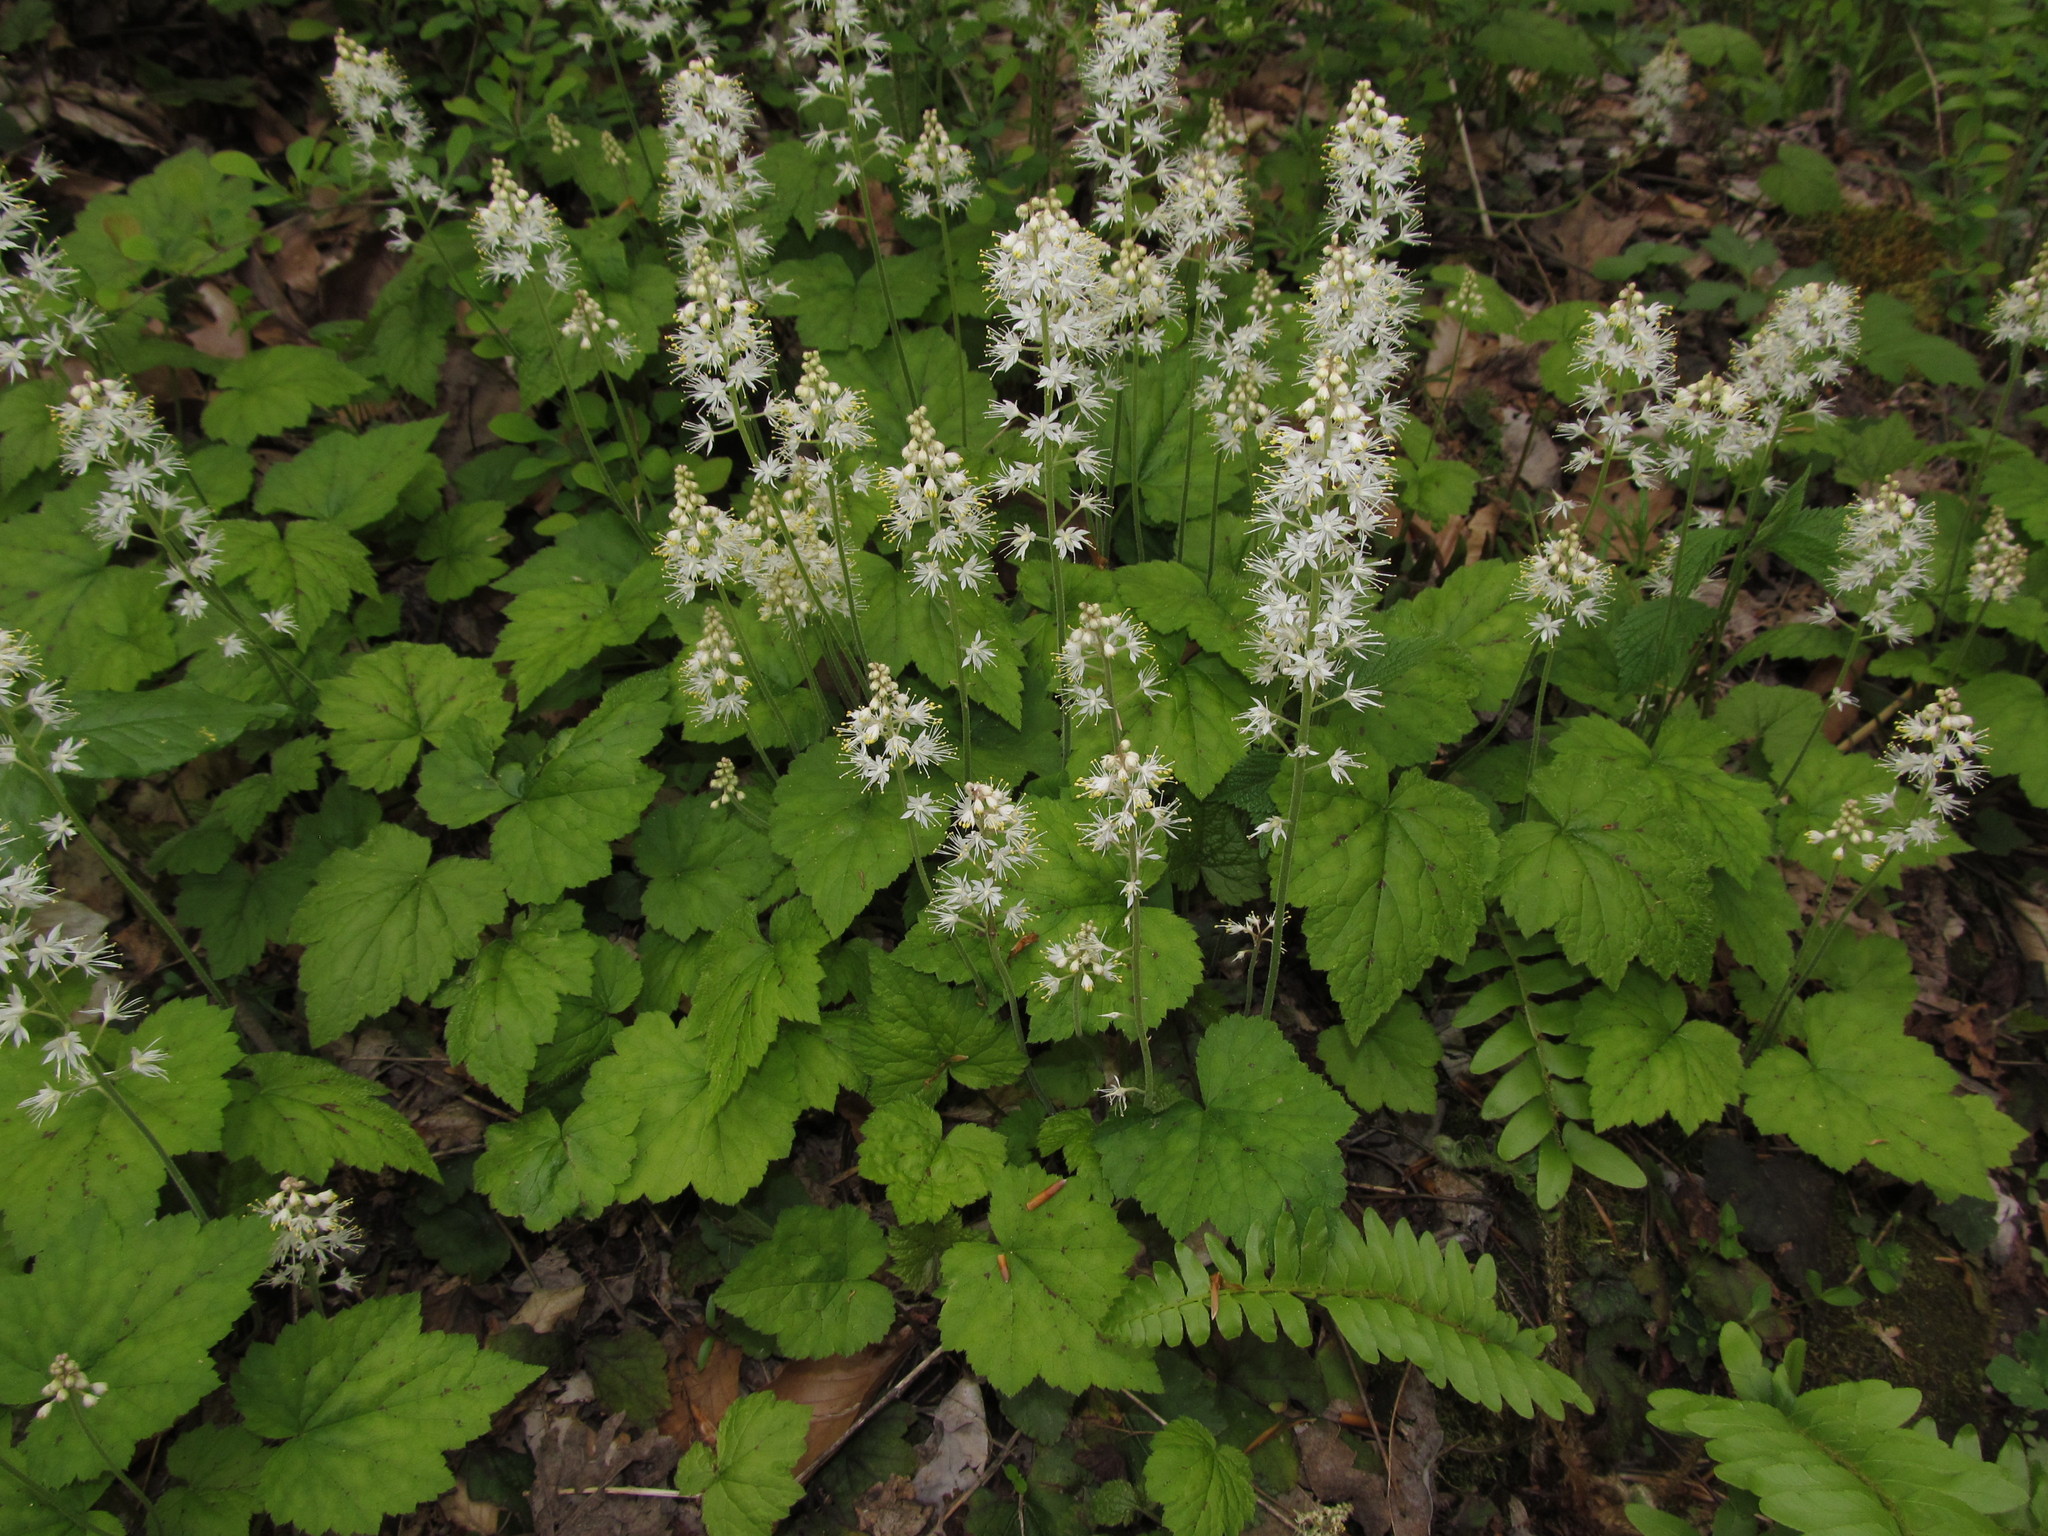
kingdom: Plantae
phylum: Tracheophyta
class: Magnoliopsida
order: Saxifragales
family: Saxifragaceae
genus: Tiarella
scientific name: Tiarella stolonifera
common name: Stoloniferous foamflower
